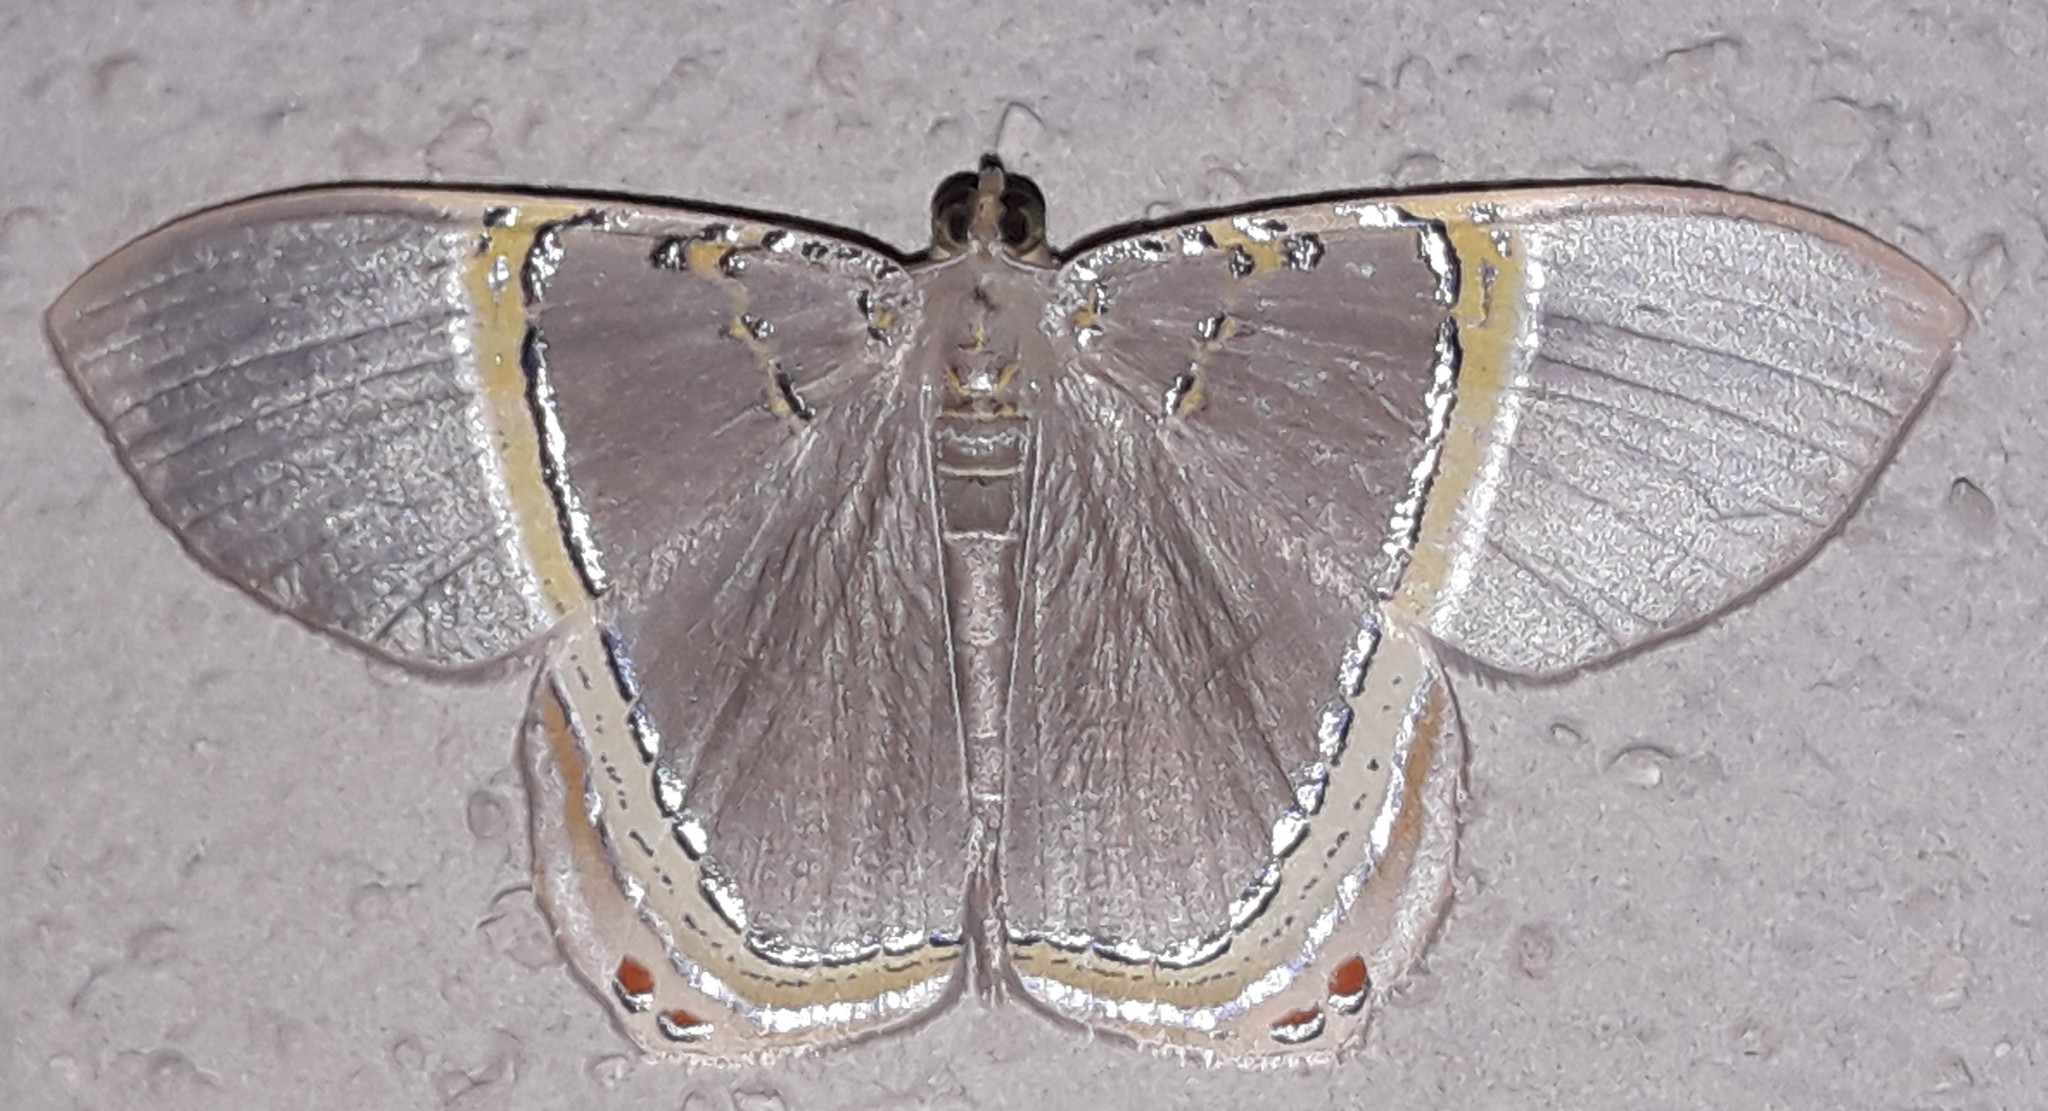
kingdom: Animalia
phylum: Arthropoda
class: Insecta
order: Lepidoptera
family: Geometridae
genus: Phrygionis
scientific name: Phrygionis privignaria
